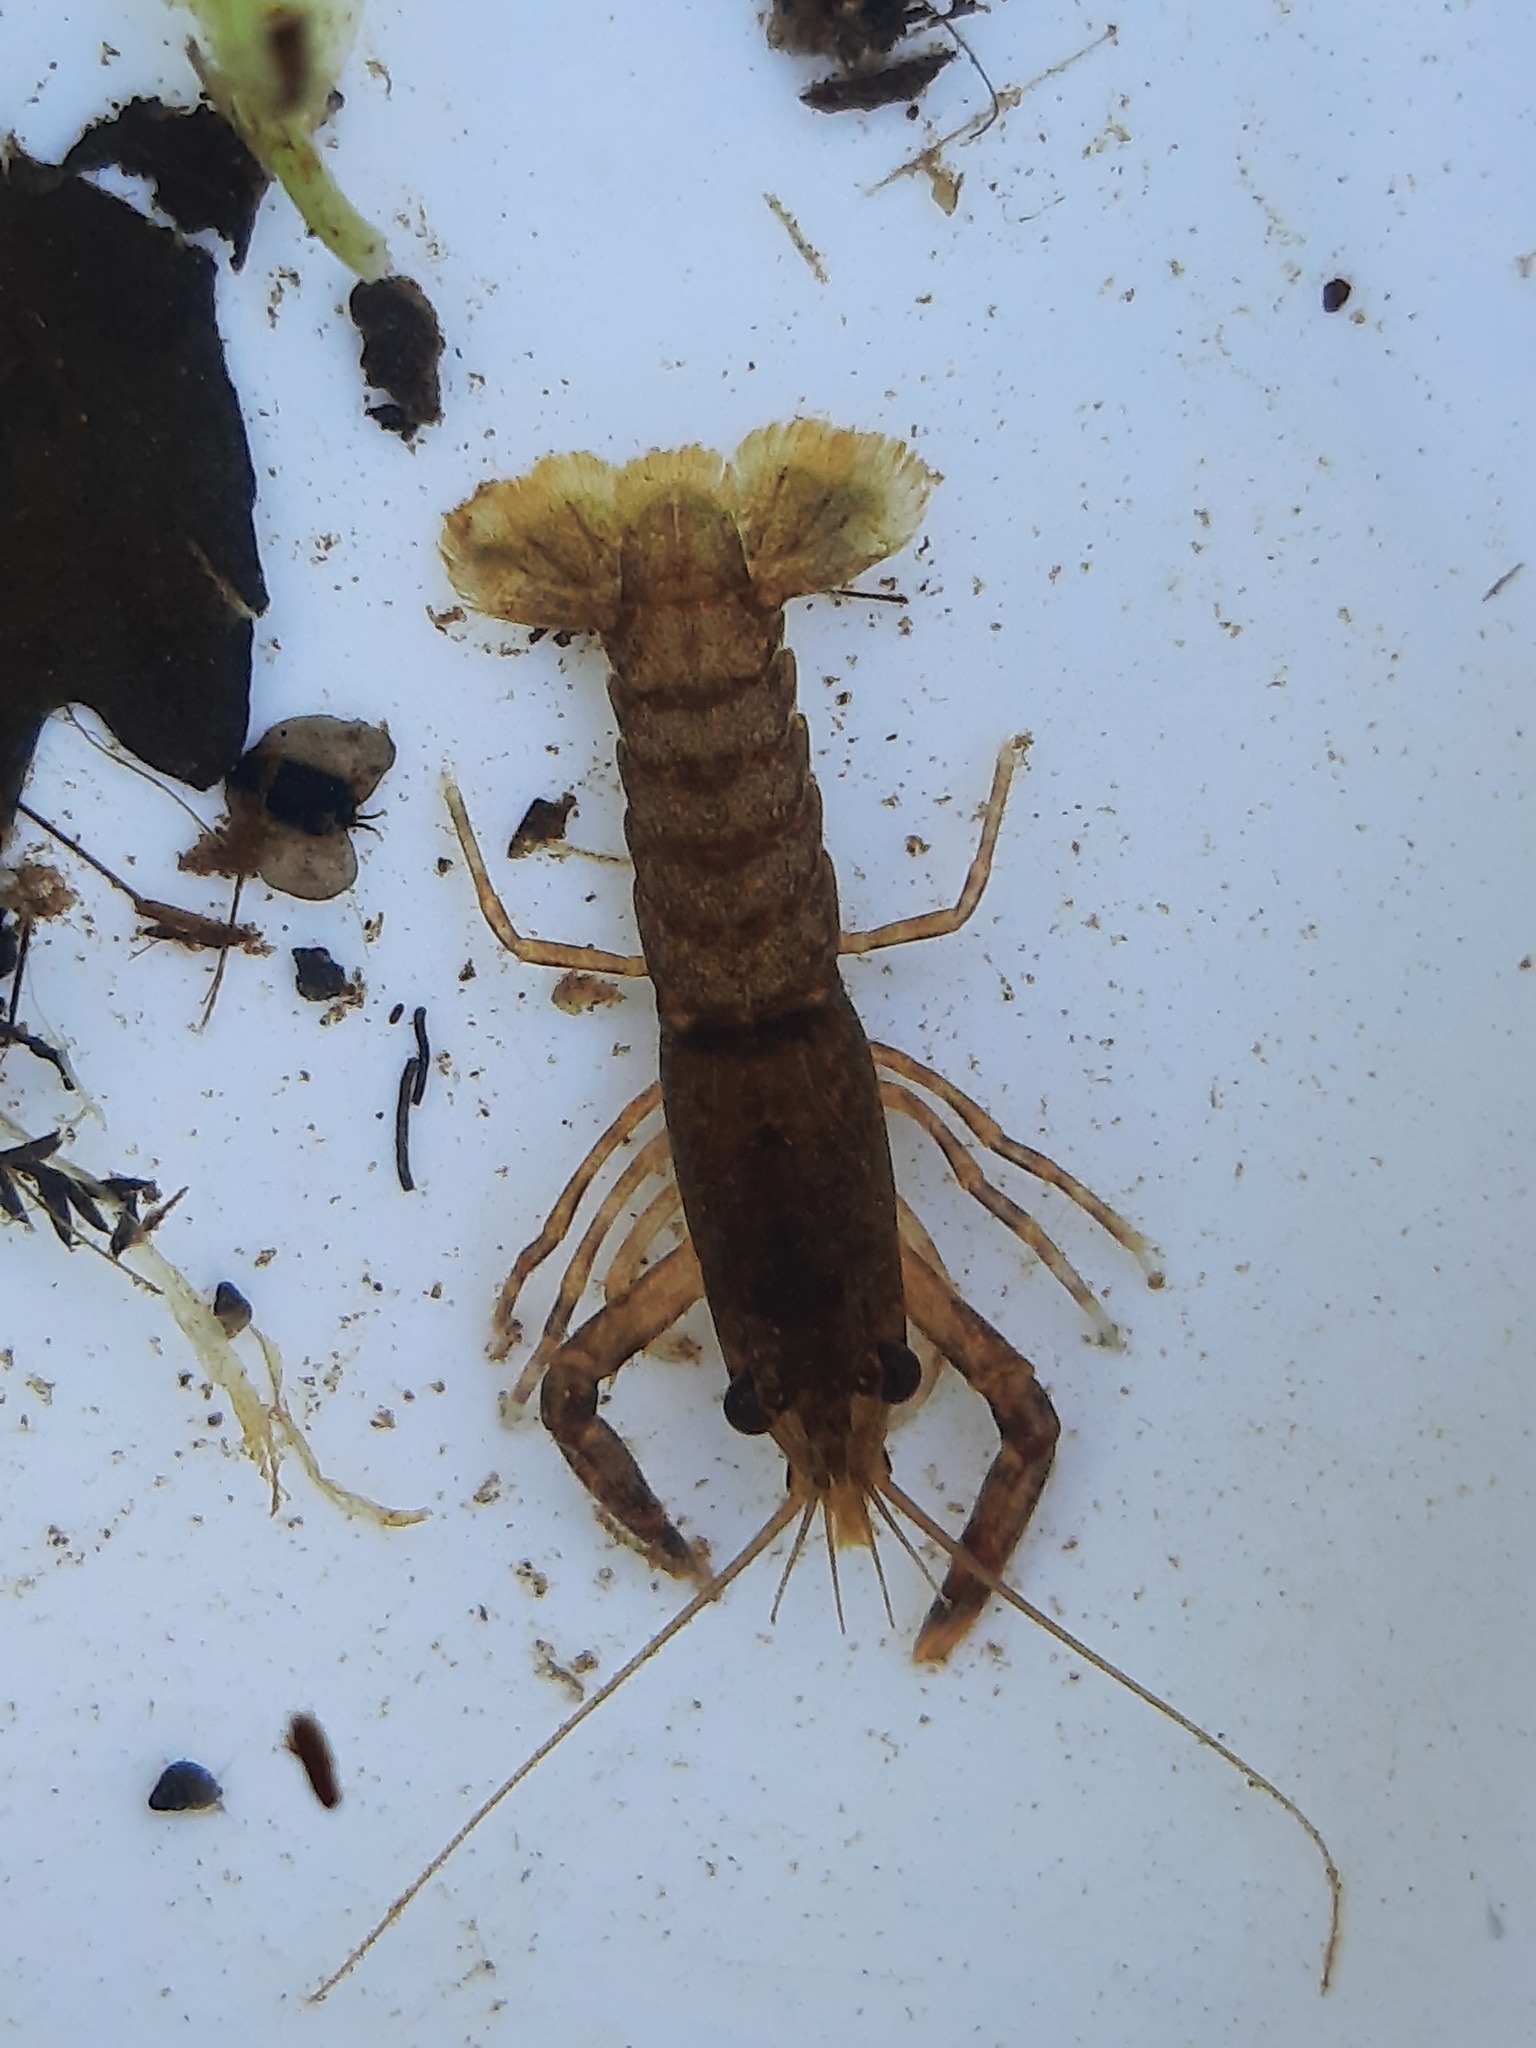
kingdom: Animalia
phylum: Arthropoda
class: Malacostraca
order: Decapoda
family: Parastacidae
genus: Paranephrops
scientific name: Paranephrops planifrons
